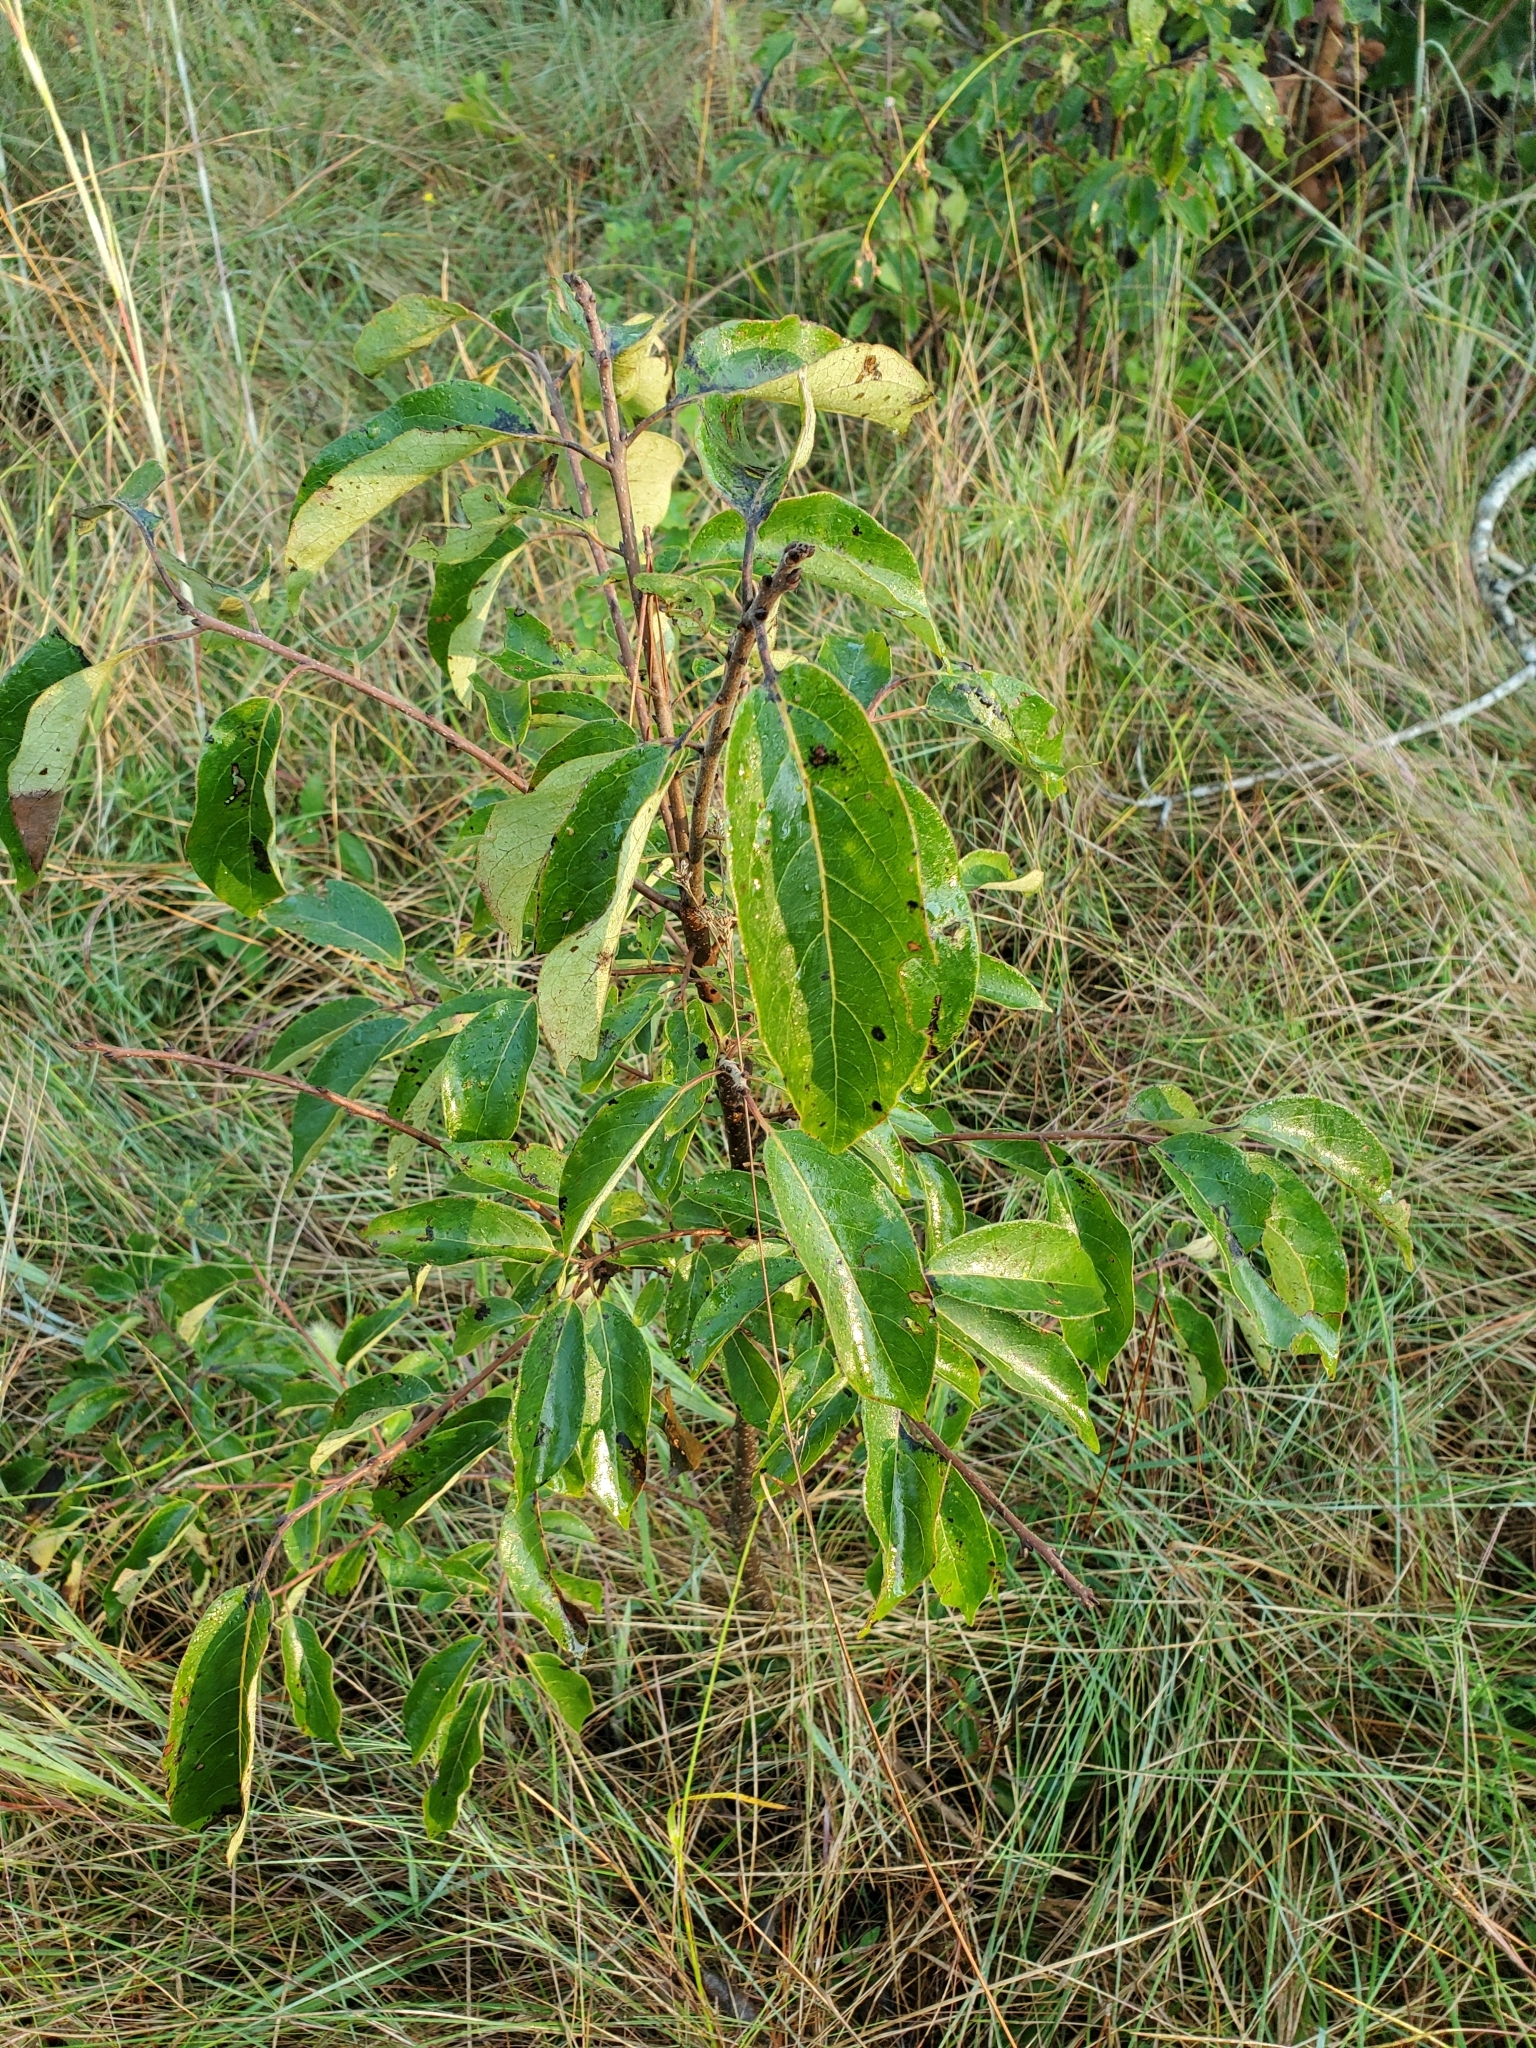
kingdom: Plantae
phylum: Tracheophyta
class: Magnoliopsida
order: Ericales
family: Ebenaceae
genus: Diospyros
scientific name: Diospyros virginiana
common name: Persimmon
